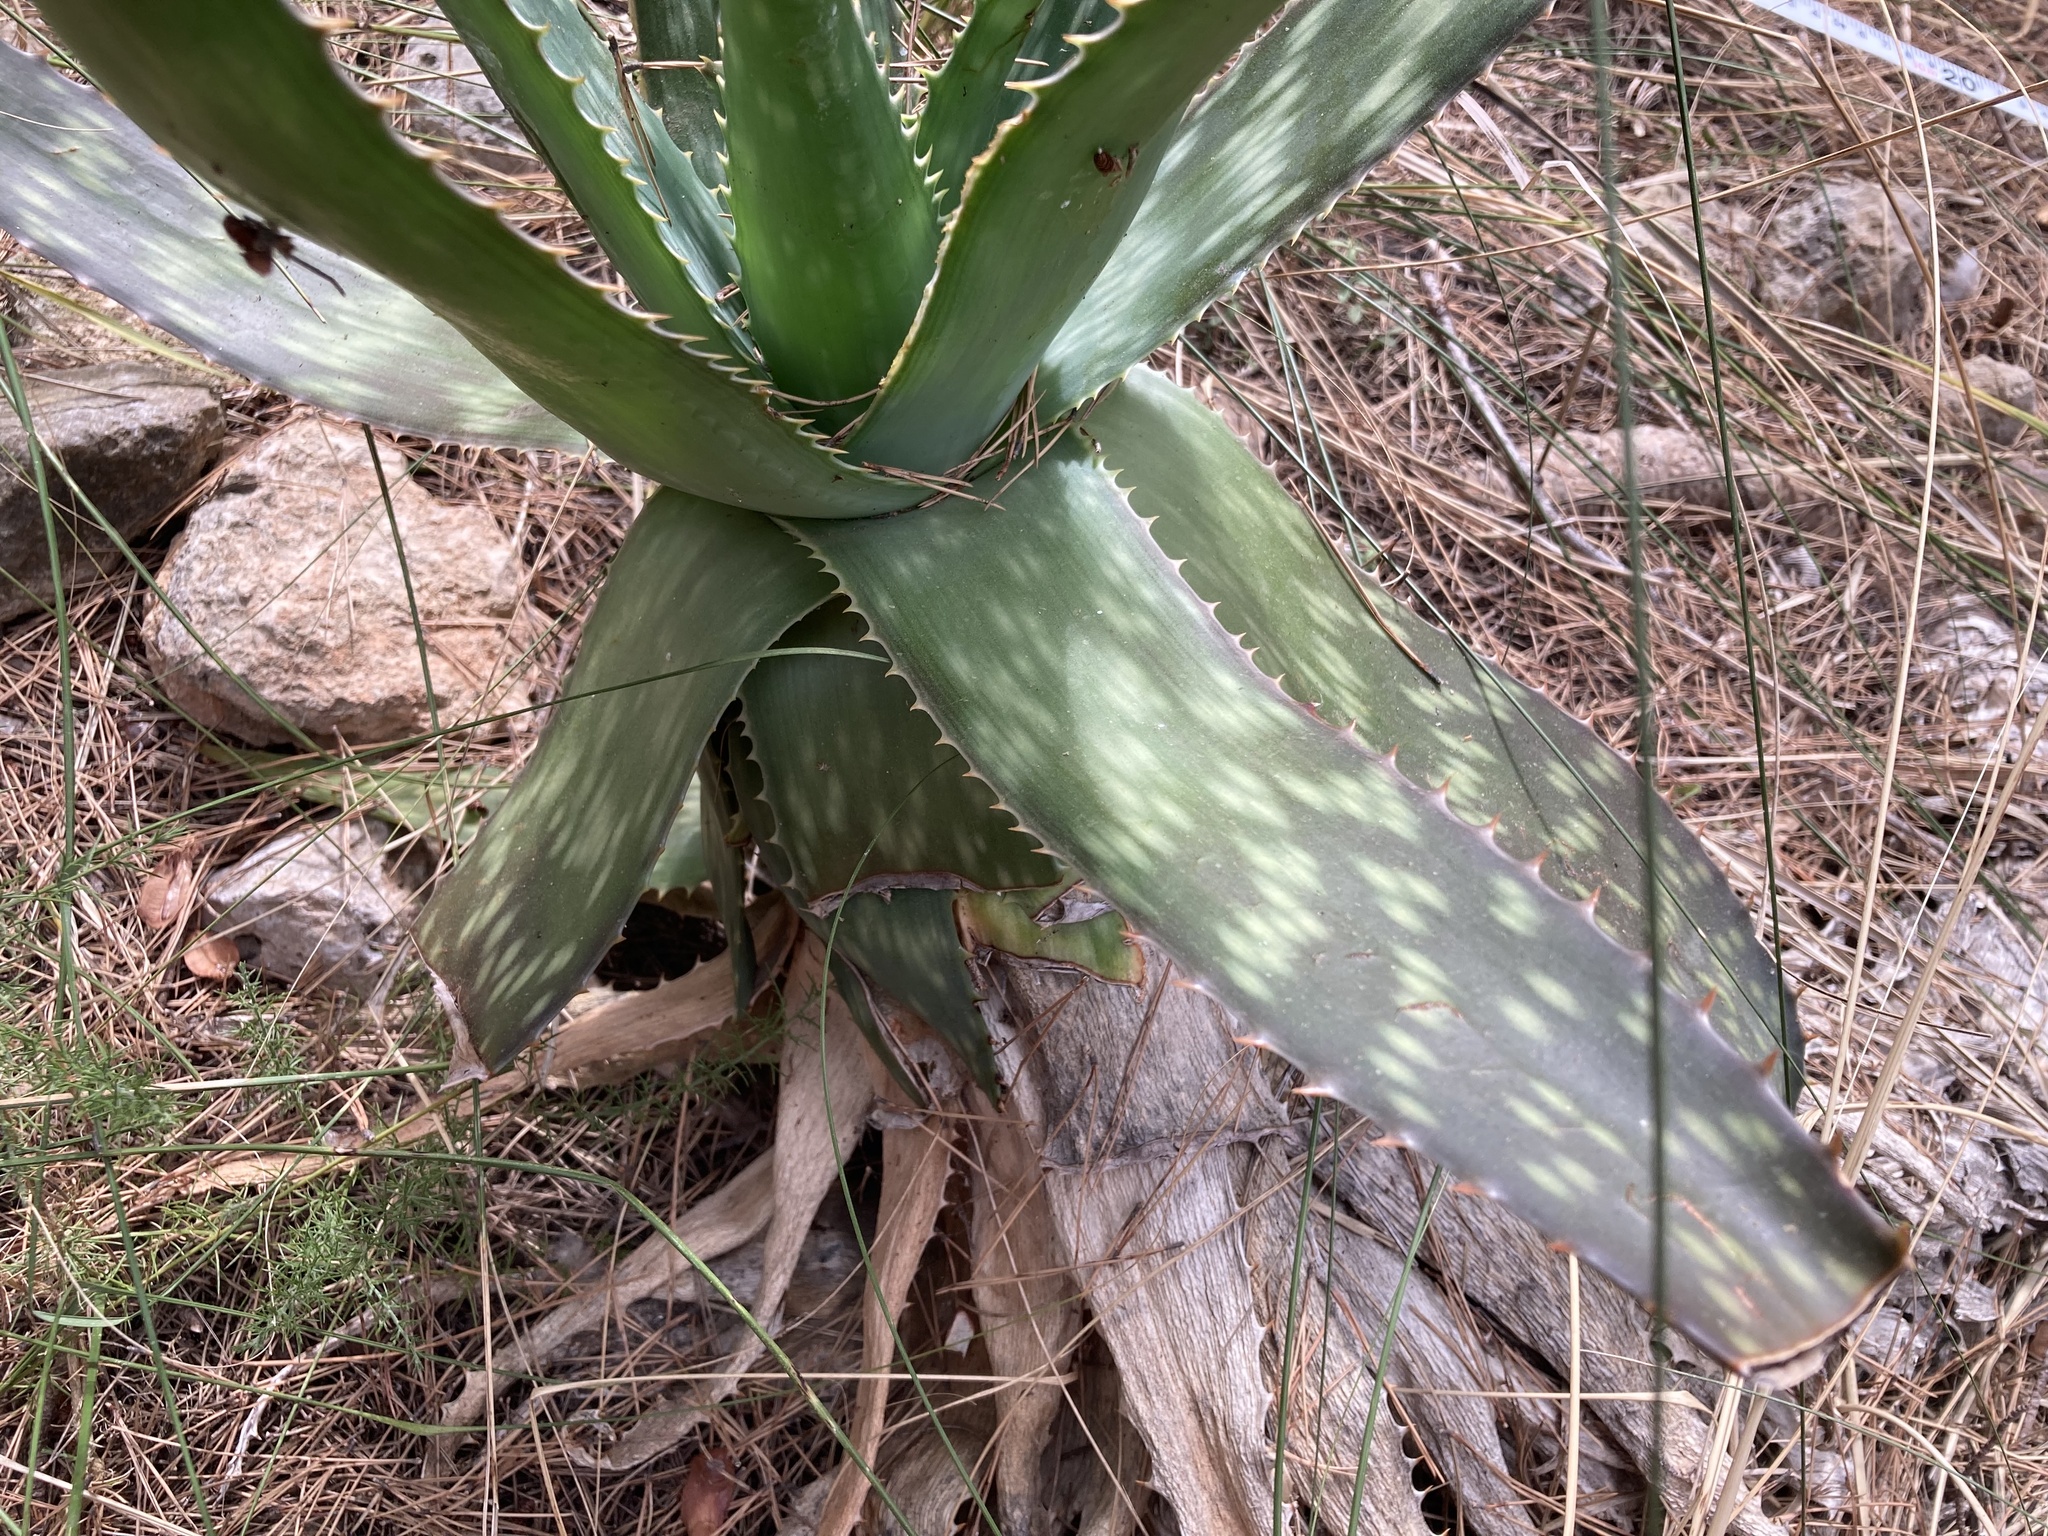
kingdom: Plantae
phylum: Tracheophyta
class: Liliopsida
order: Asparagales
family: Asphodelaceae
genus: Aloe
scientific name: Aloe maculata
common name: Broadleaf aloe
